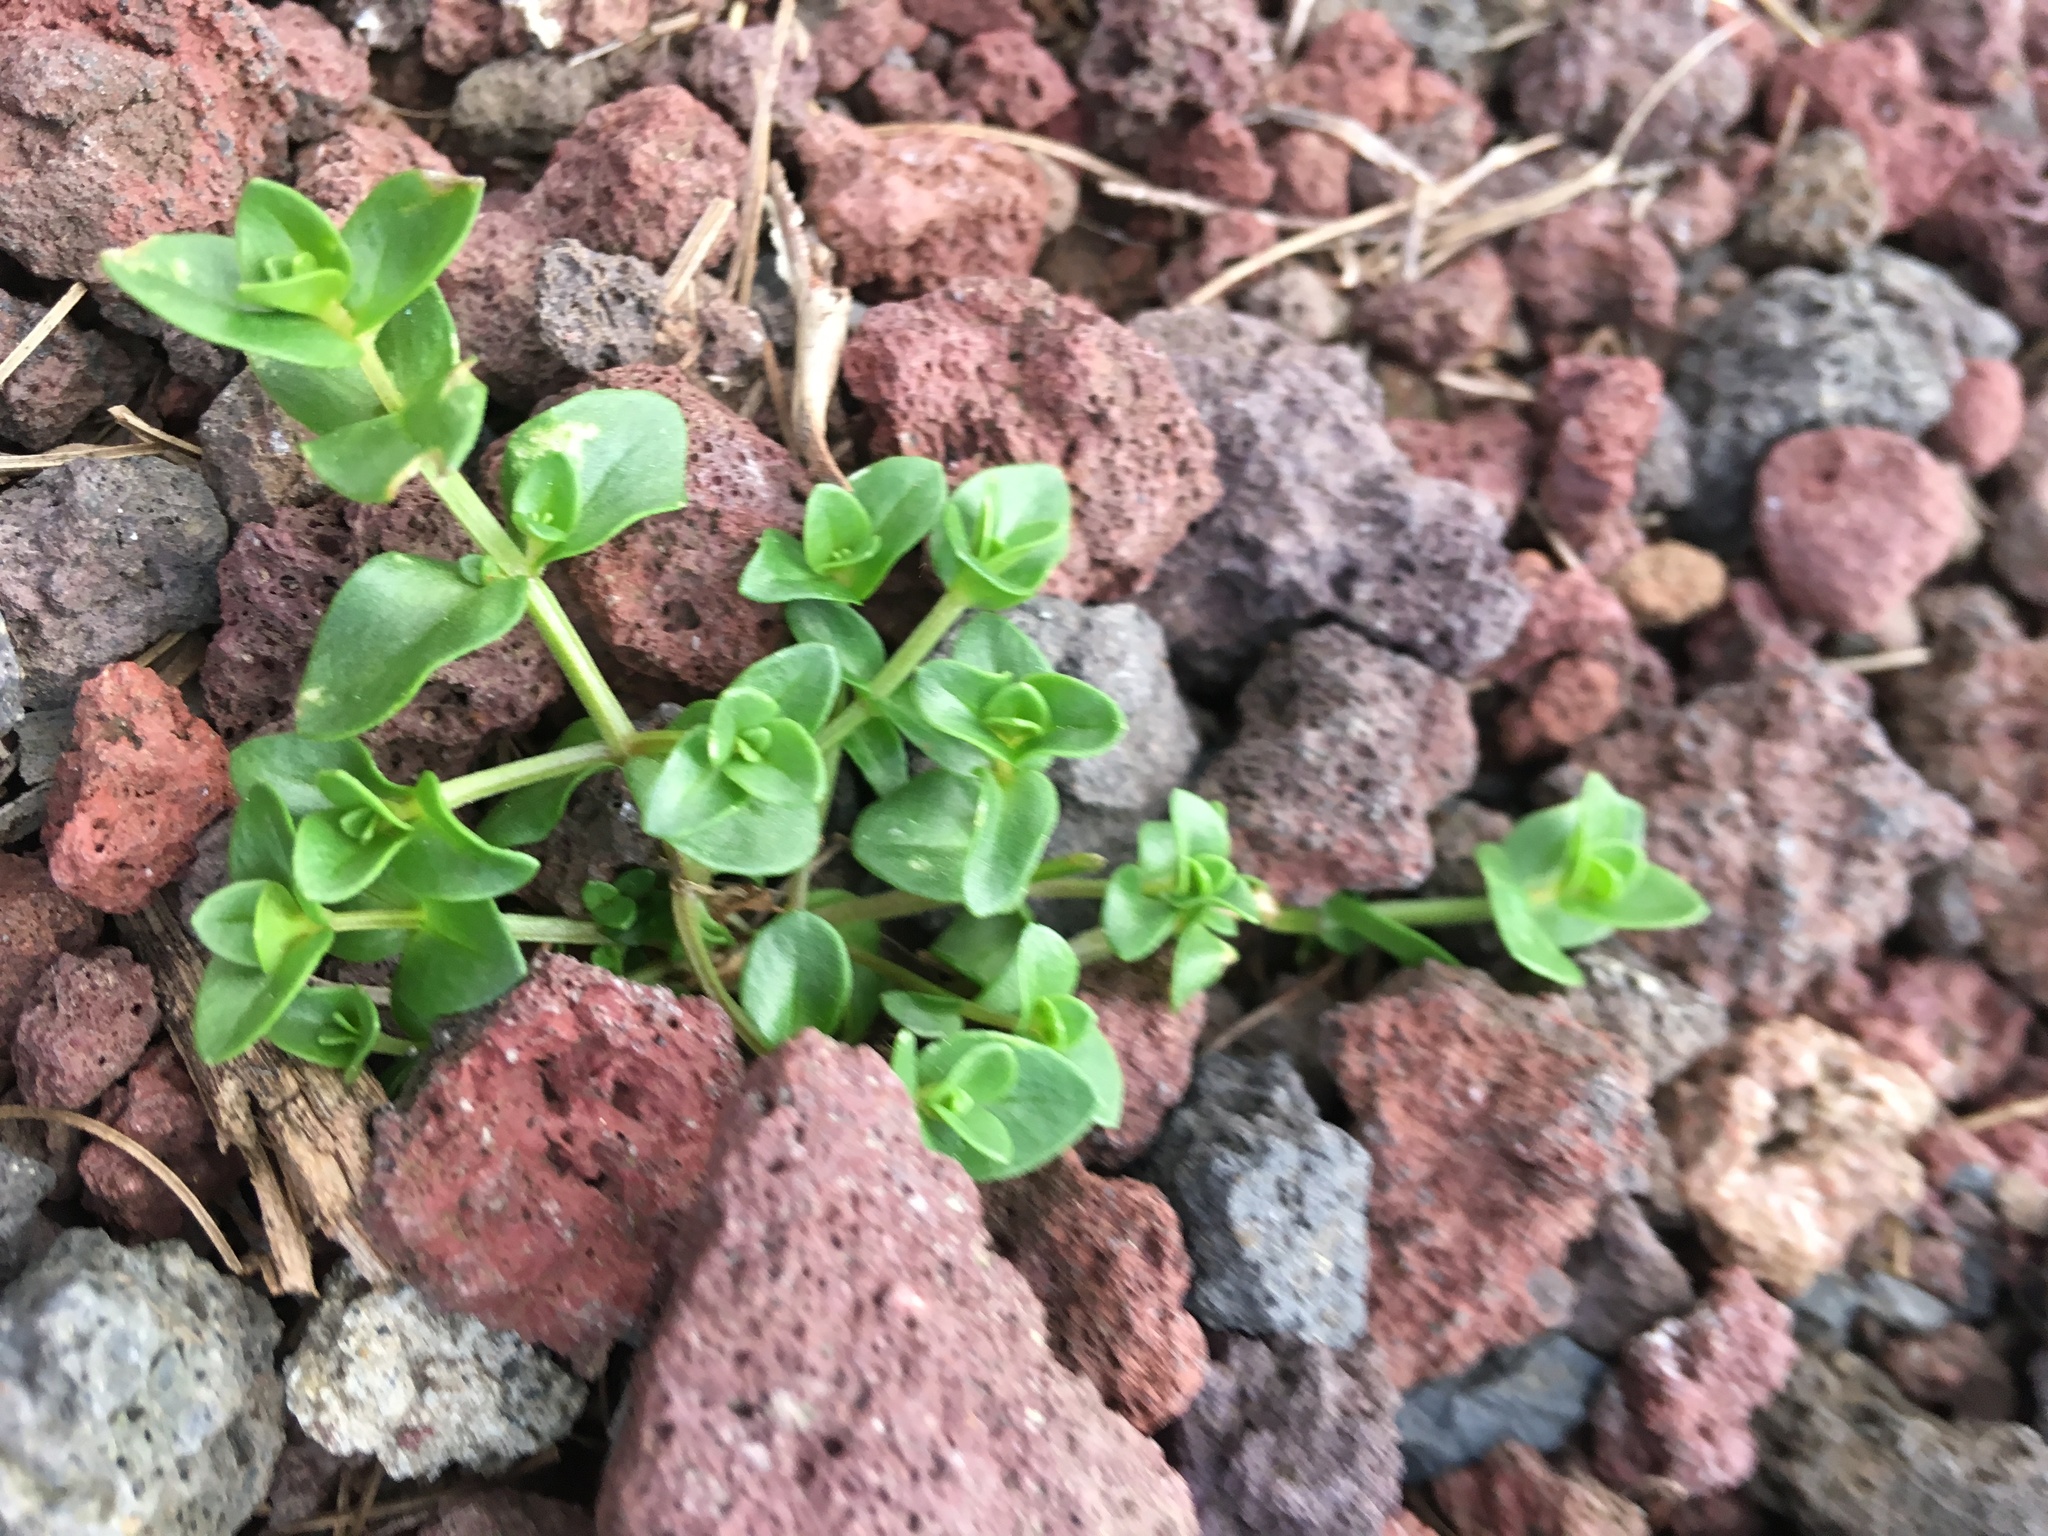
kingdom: Plantae
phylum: Tracheophyta
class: Magnoliopsida
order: Ericales
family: Primulaceae
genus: Lysimachia
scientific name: Lysimachia arvensis
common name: Scarlet pimpernel
